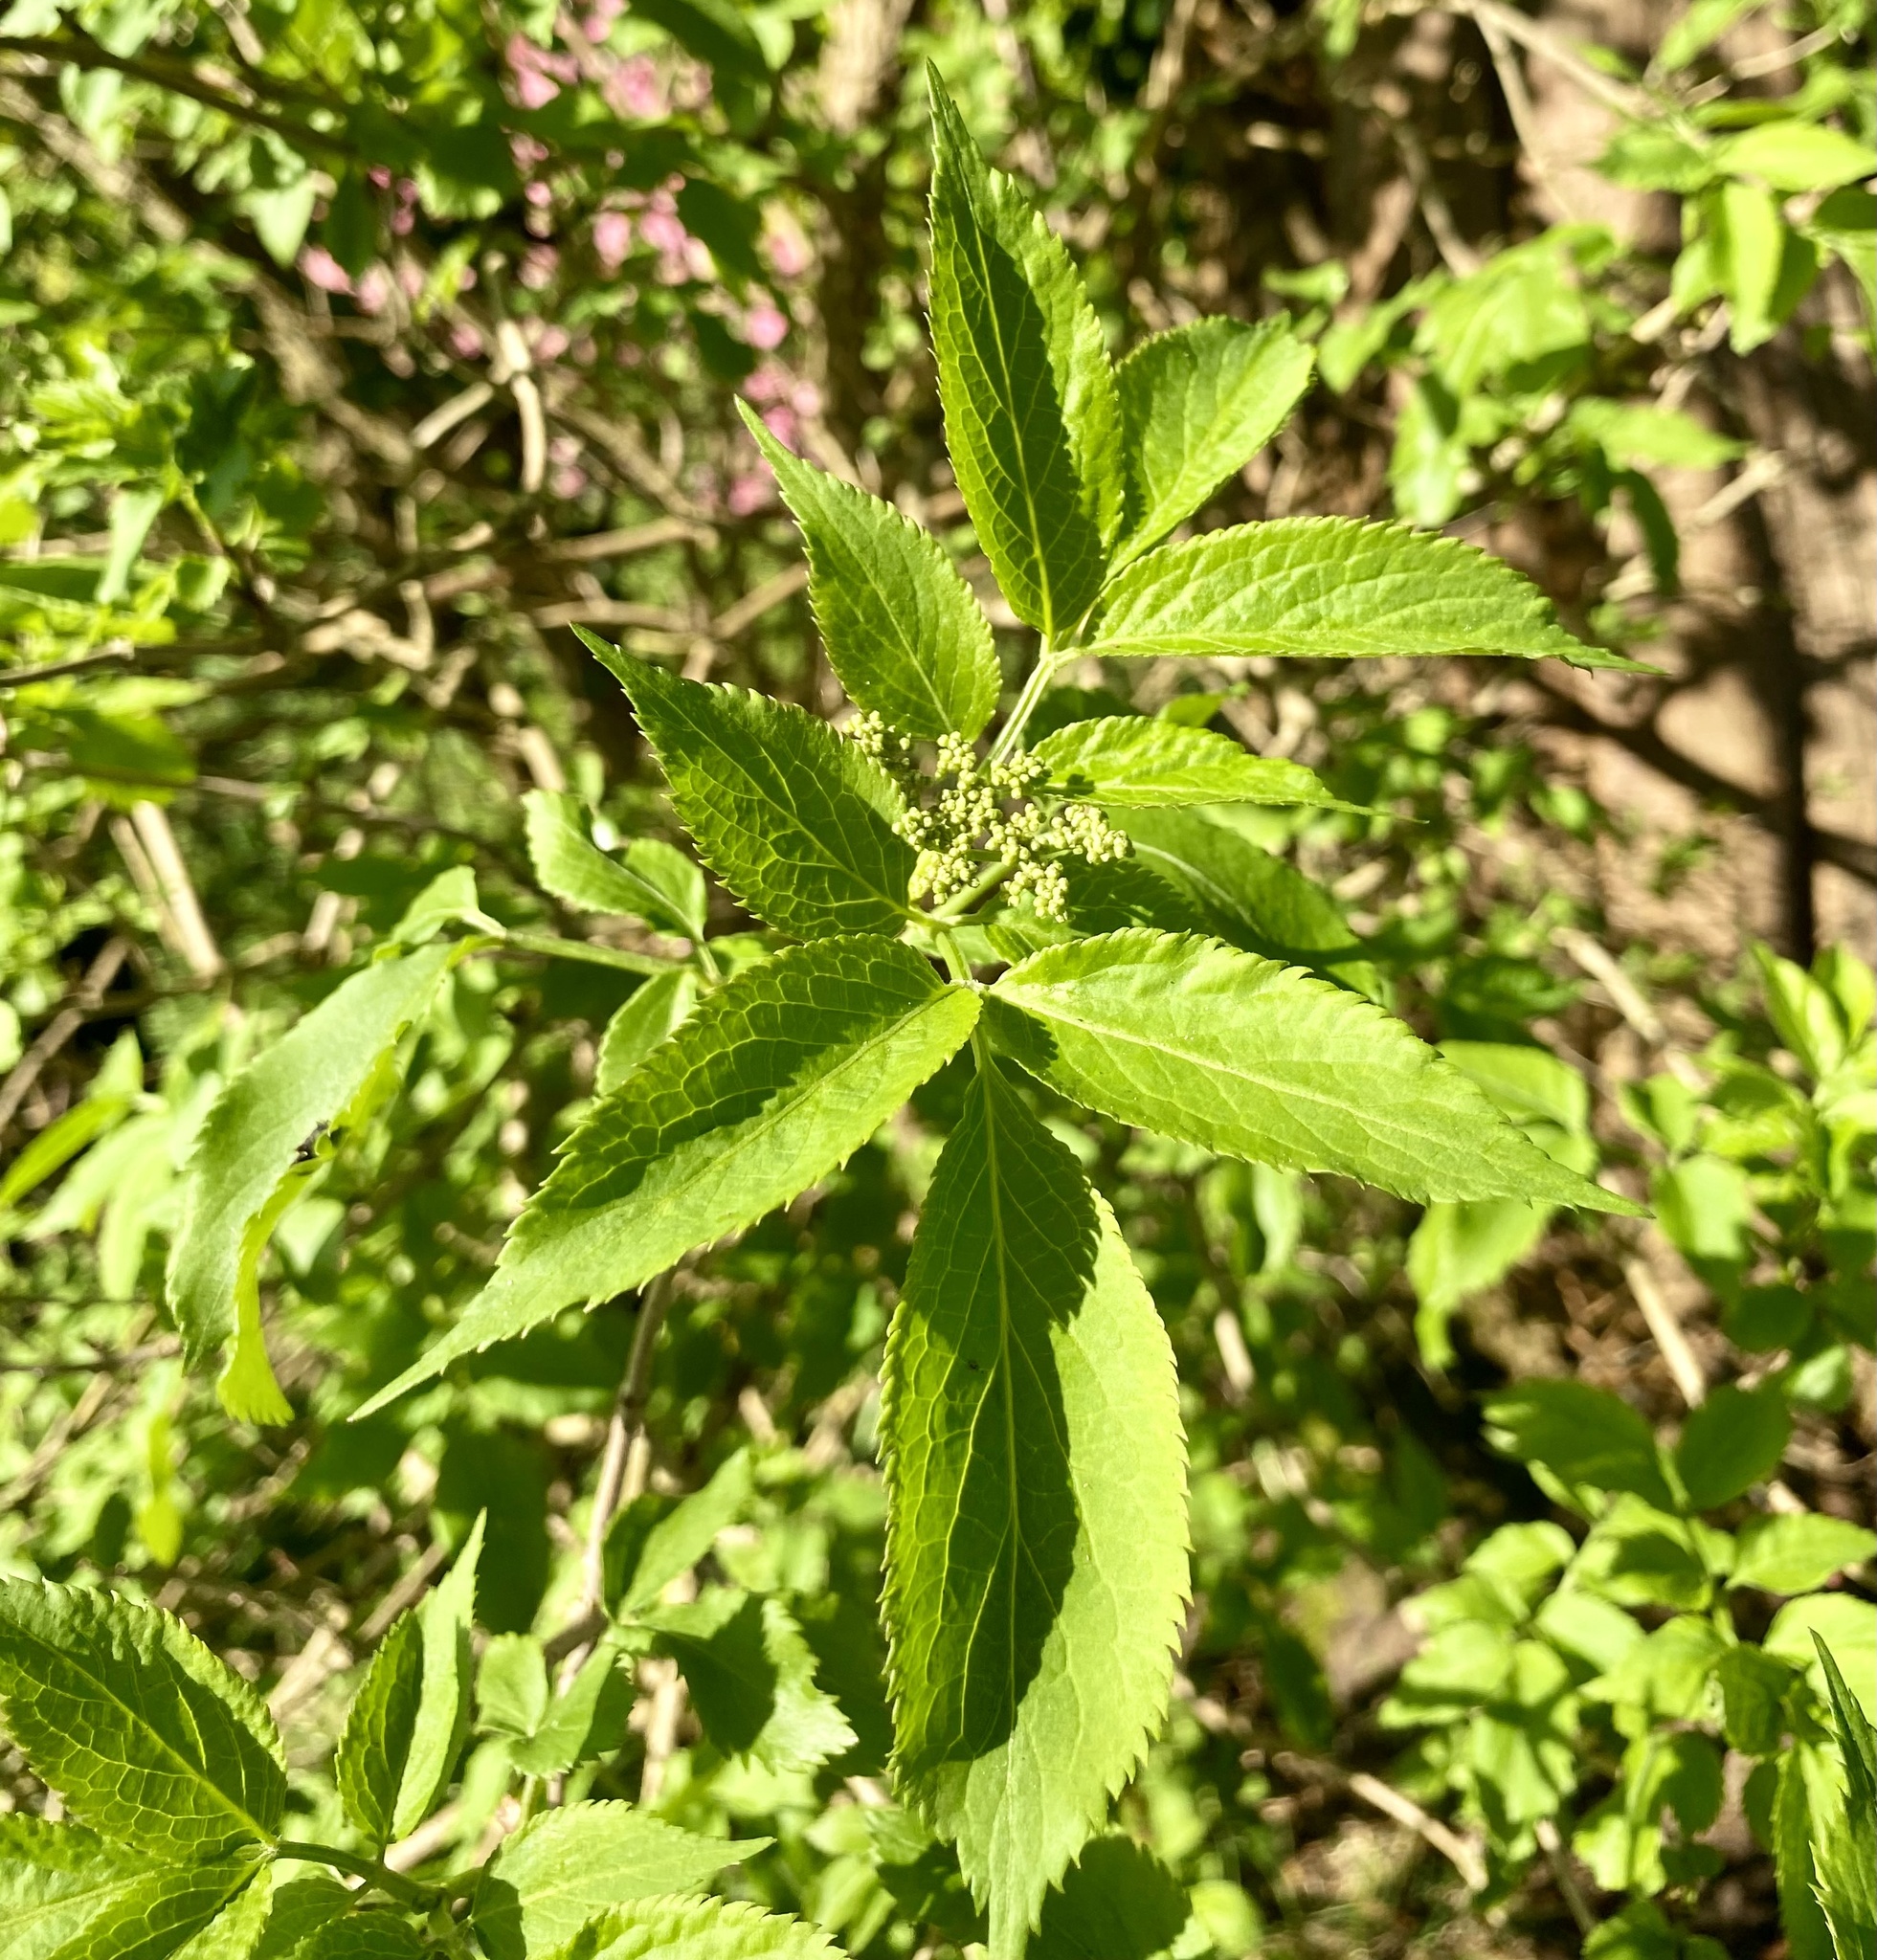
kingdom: Plantae
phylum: Tracheophyta
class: Magnoliopsida
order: Dipsacales
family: Viburnaceae
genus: Sambucus
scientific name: Sambucus nigra
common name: Elder
